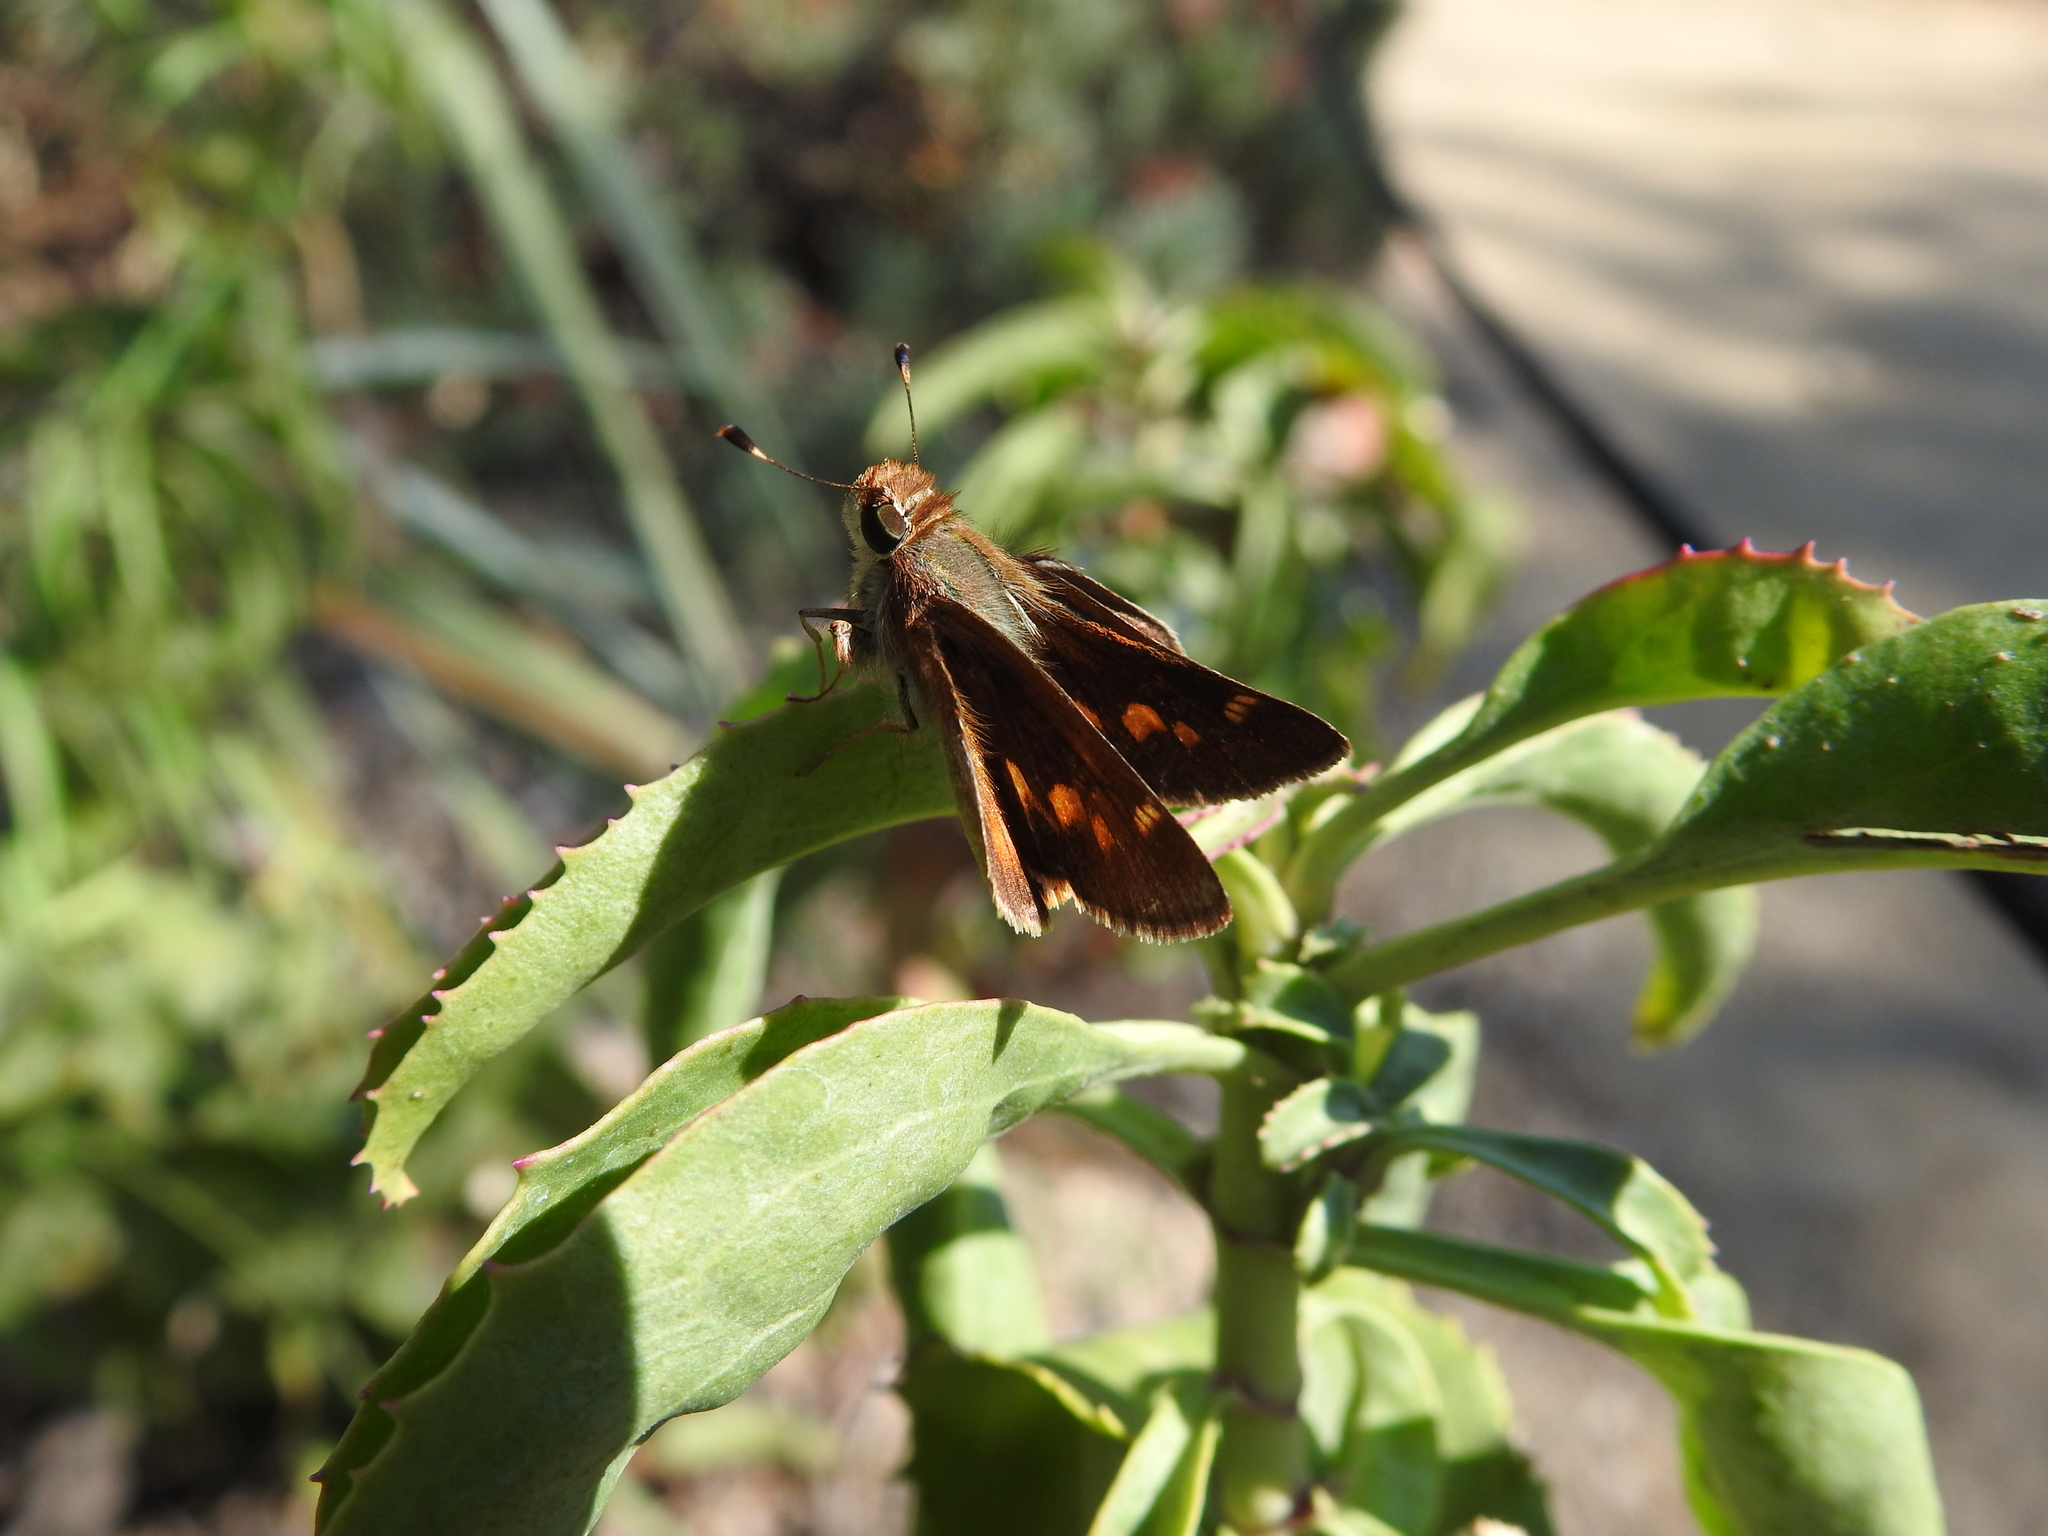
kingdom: Animalia
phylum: Arthropoda
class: Insecta
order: Lepidoptera
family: Hesperiidae
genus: Lon
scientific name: Lon melane
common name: Umber skipper
